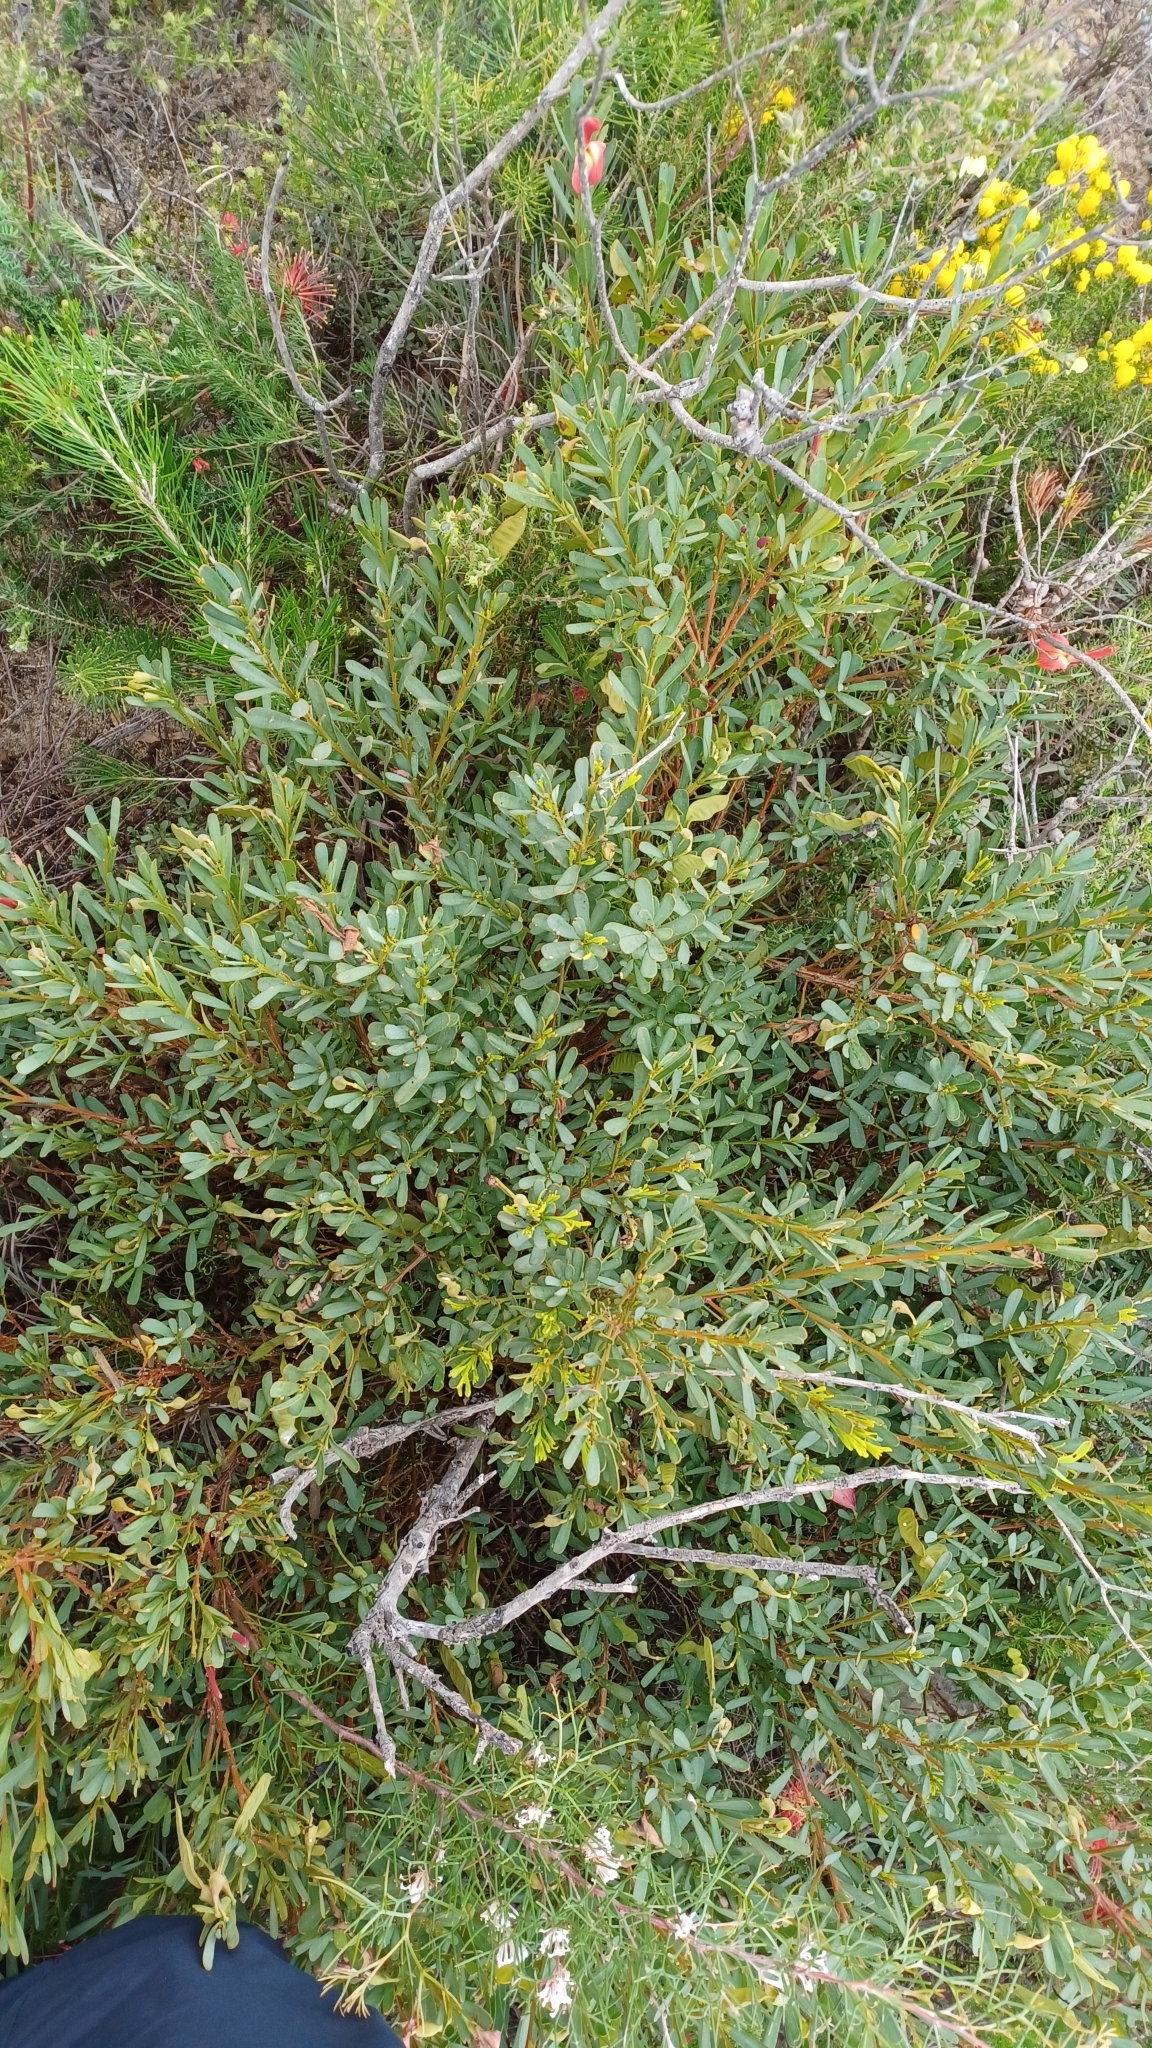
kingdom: Plantae
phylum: Tracheophyta
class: Magnoliopsida
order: Fabales
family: Fabaceae
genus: Templetonia
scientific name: Templetonia retusa
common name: Cockies'-tongue
